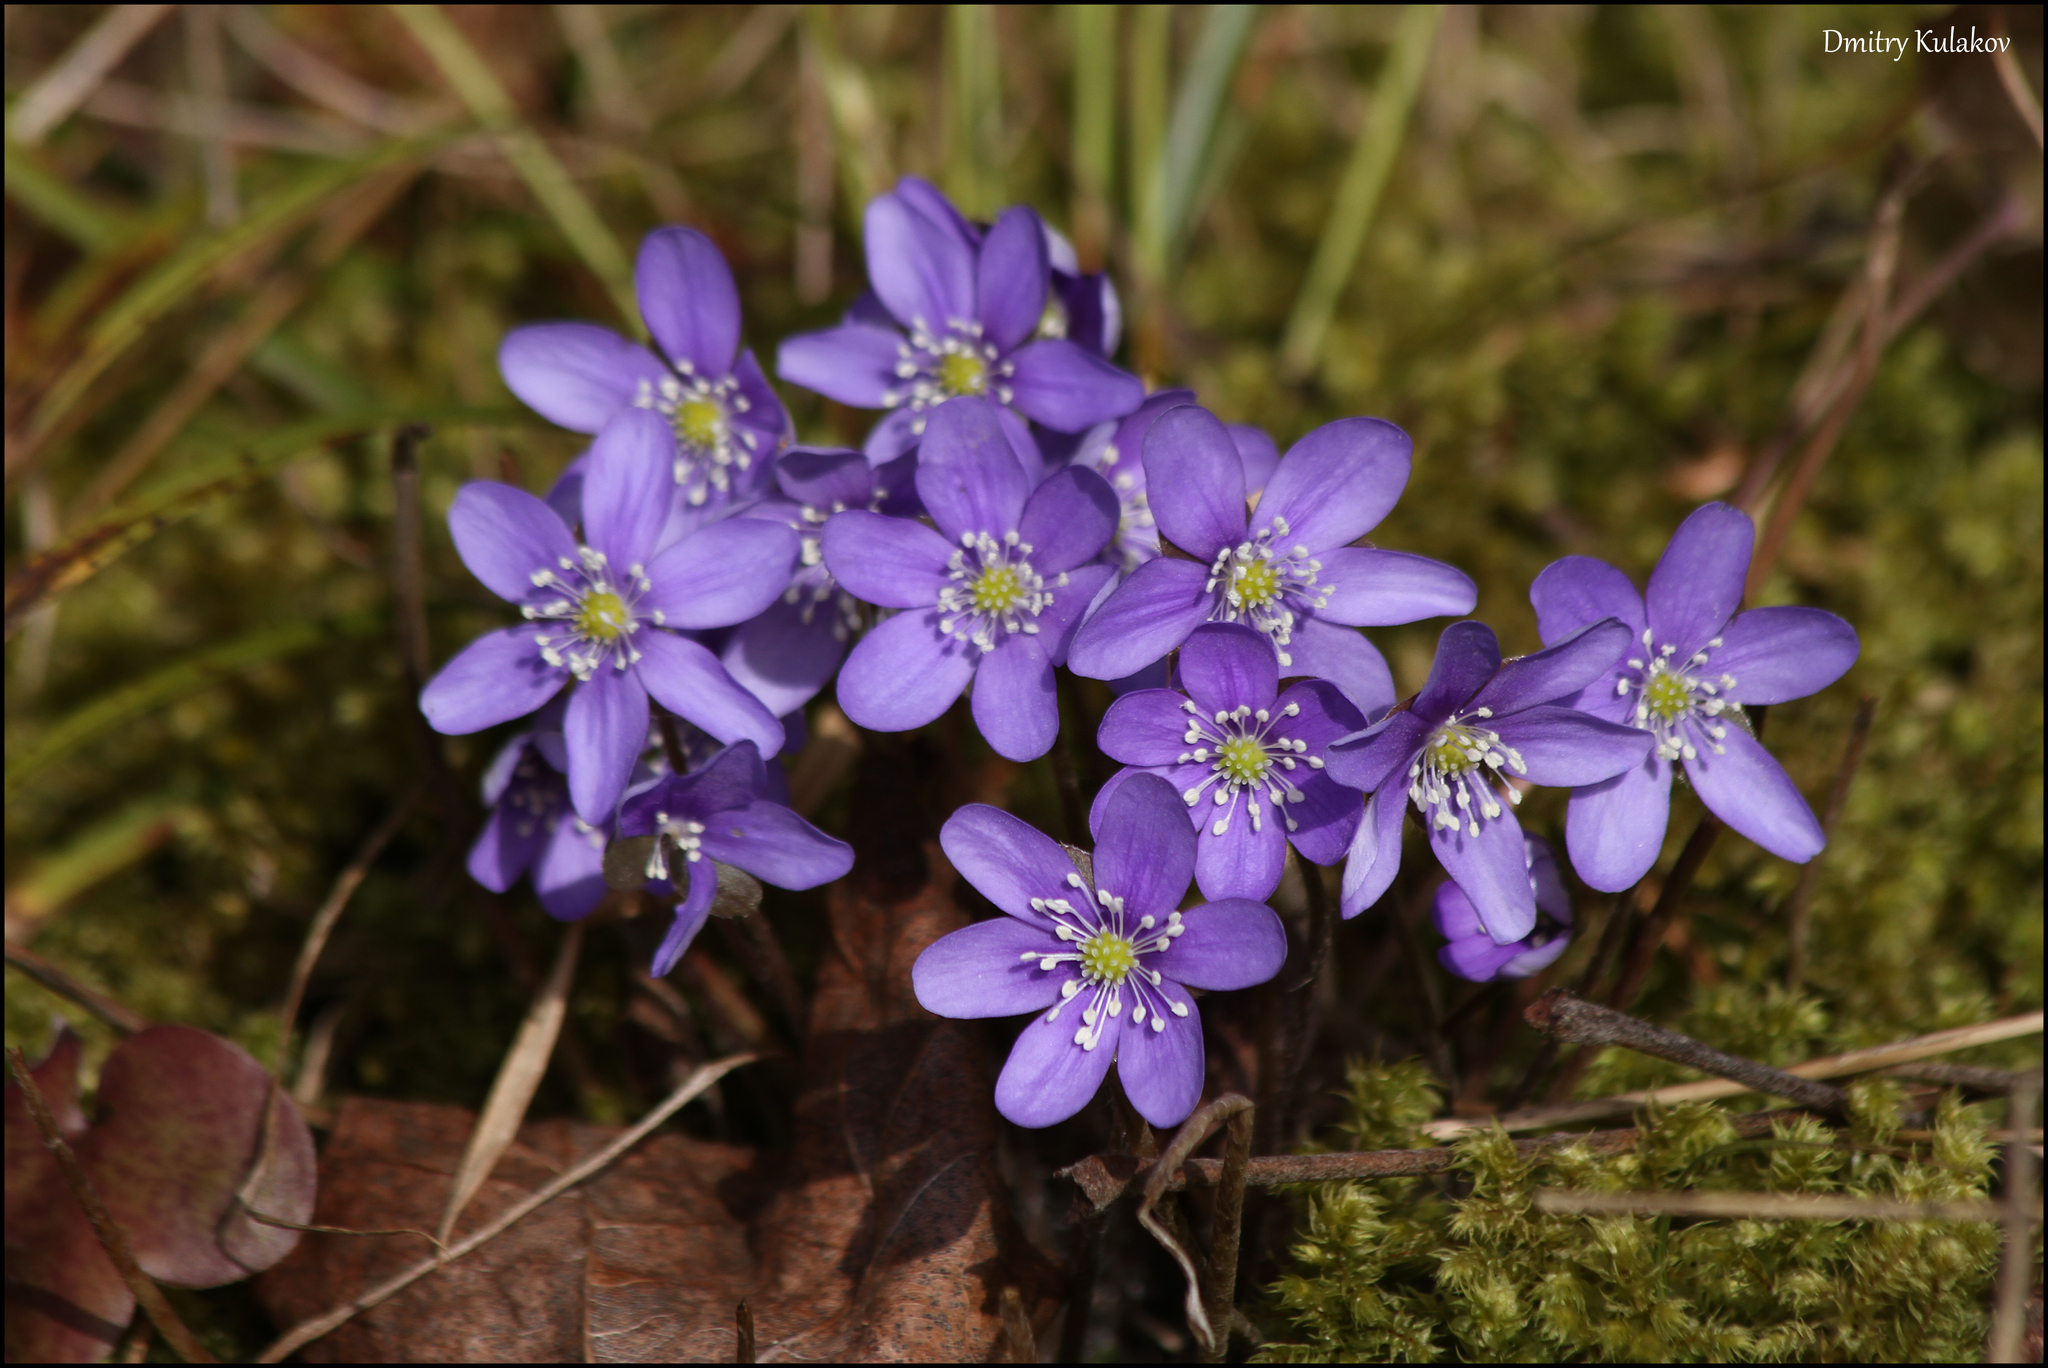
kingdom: Plantae
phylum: Tracheophyta
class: Magnoliopsida
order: Ranunculales
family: Ranunculaceae
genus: Hepatica
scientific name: Hepatica nobilis
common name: Liverleaf
